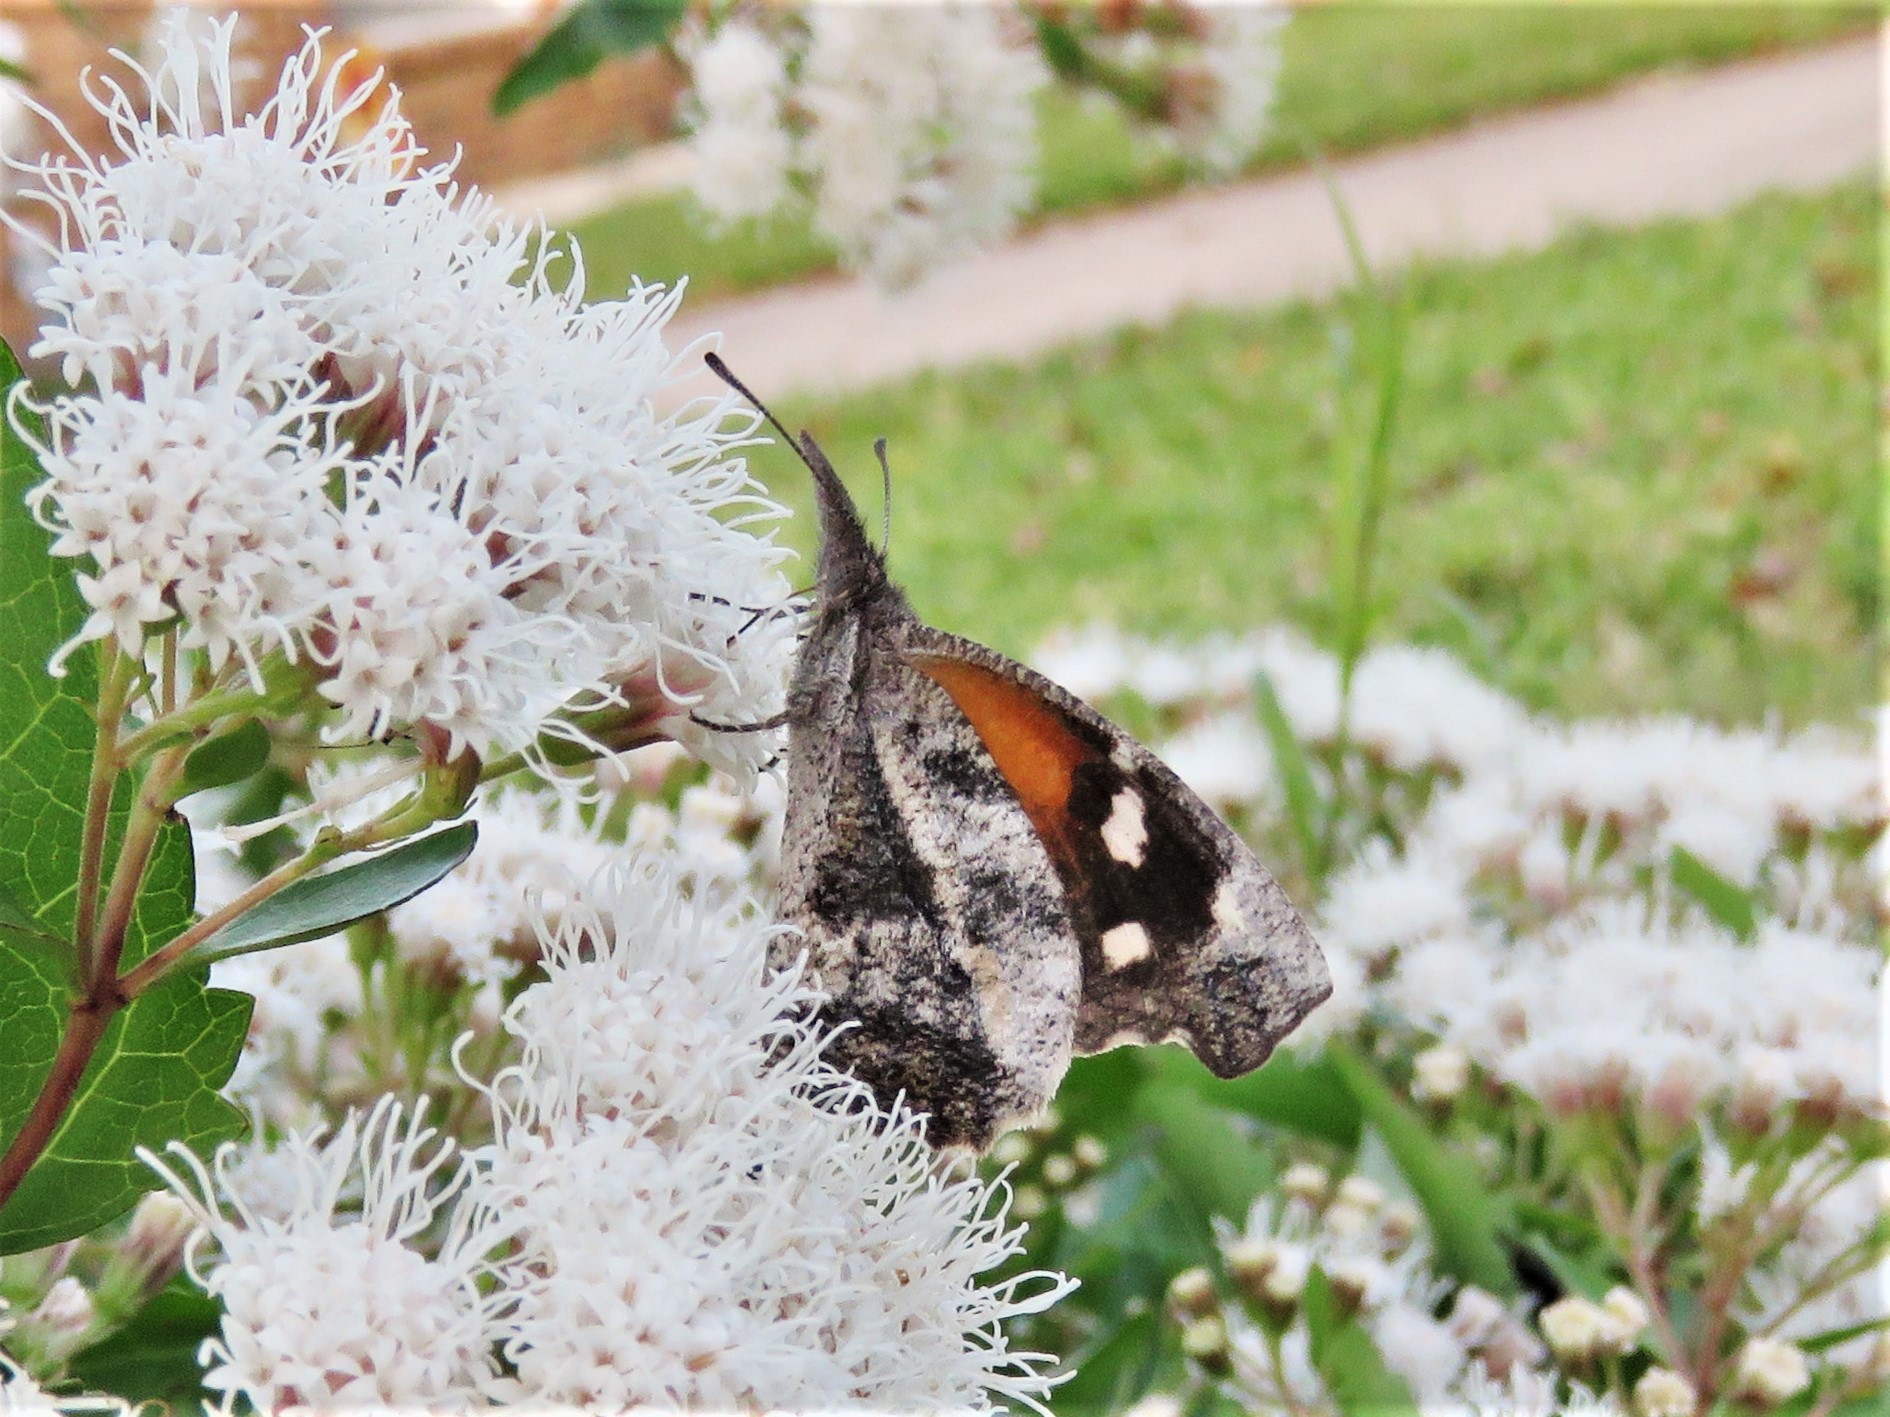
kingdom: Animalia
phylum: Arthropoda
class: Insecta
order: Lepidoptera
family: Nymphalidae
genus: Libytheana
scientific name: Libytheana carinenta
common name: American snout
